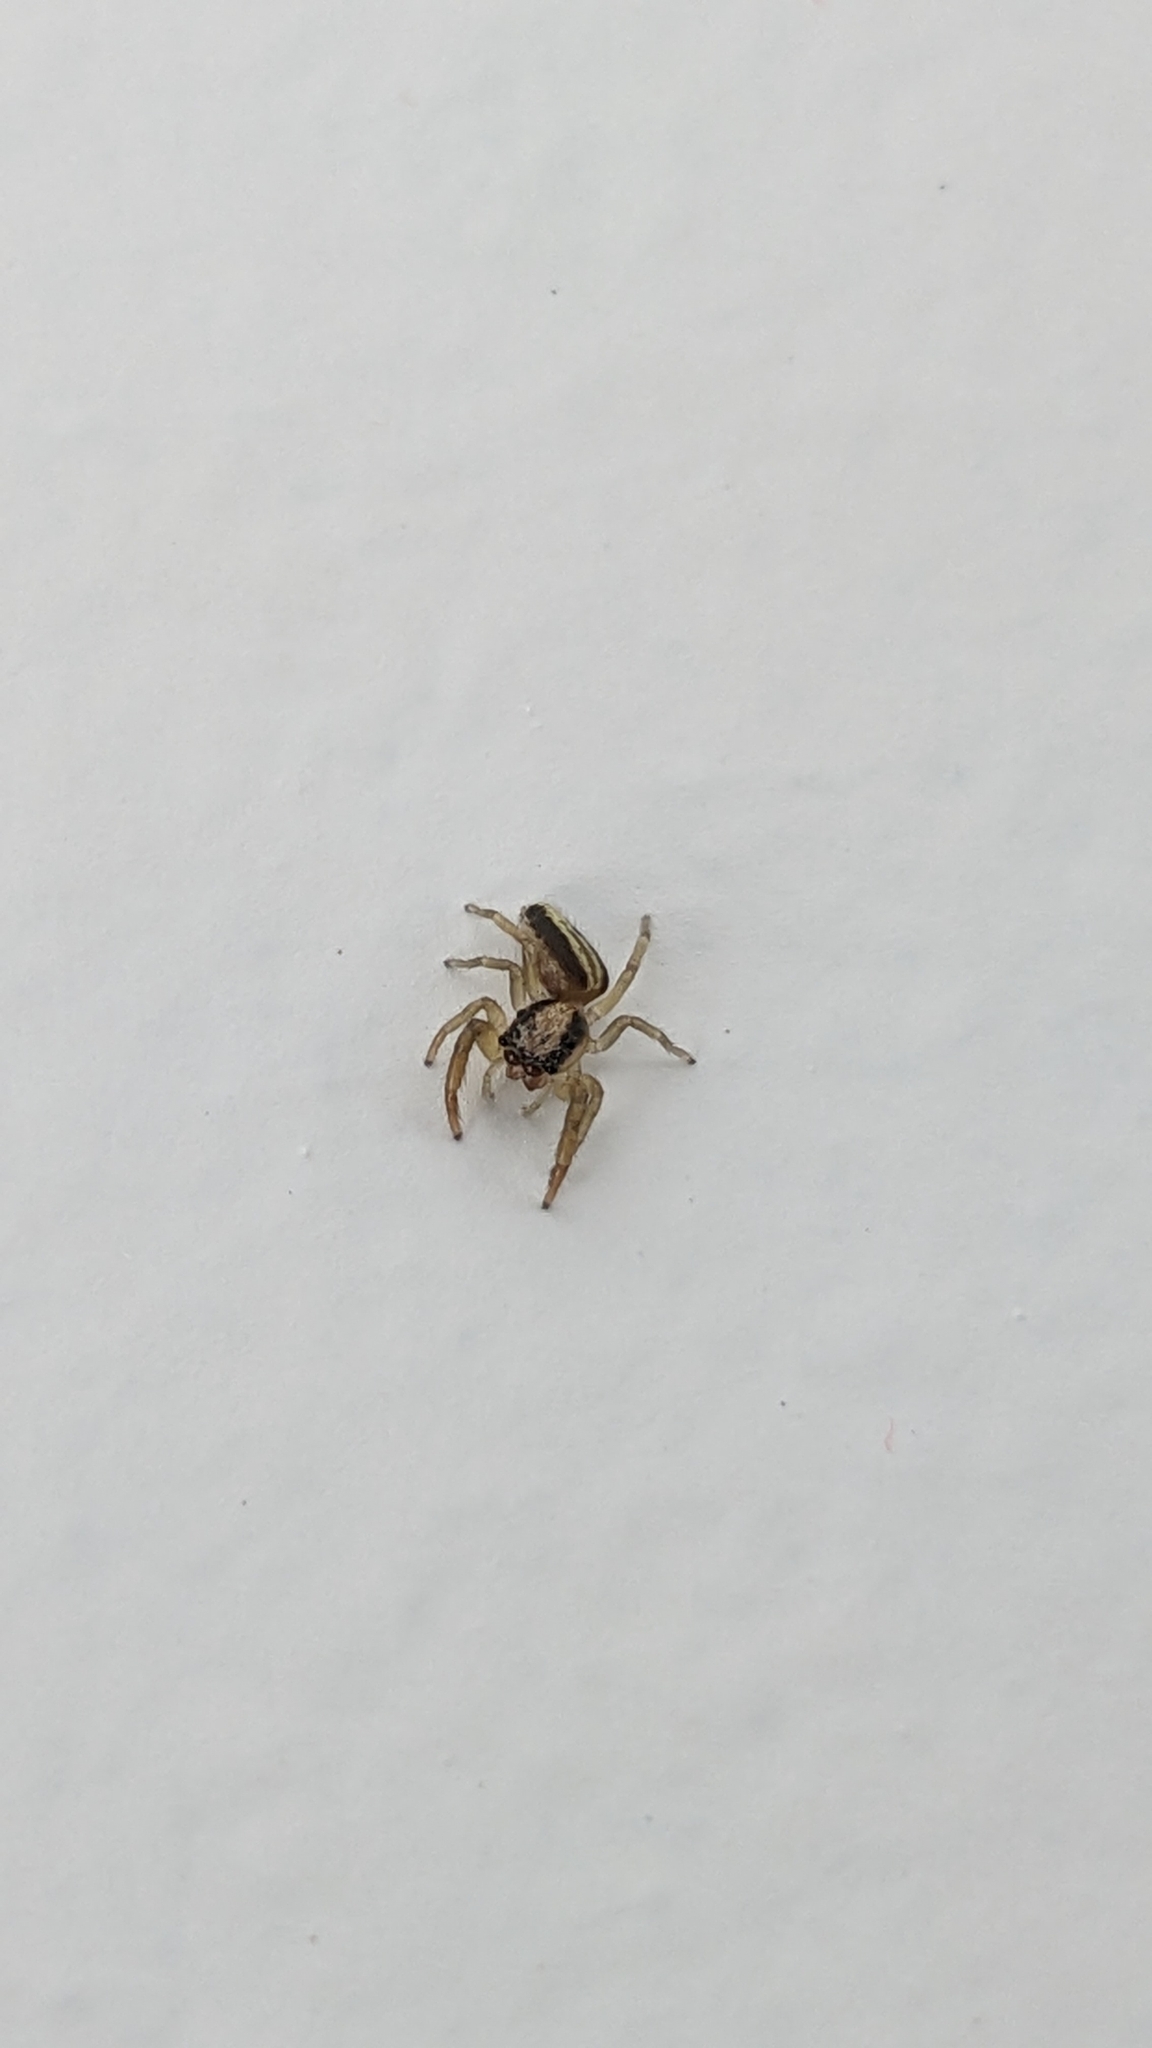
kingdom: Animalia
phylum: Arthropoda
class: Arachnida
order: Araneae
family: Salticidae
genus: Trite
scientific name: Trite planiceps
